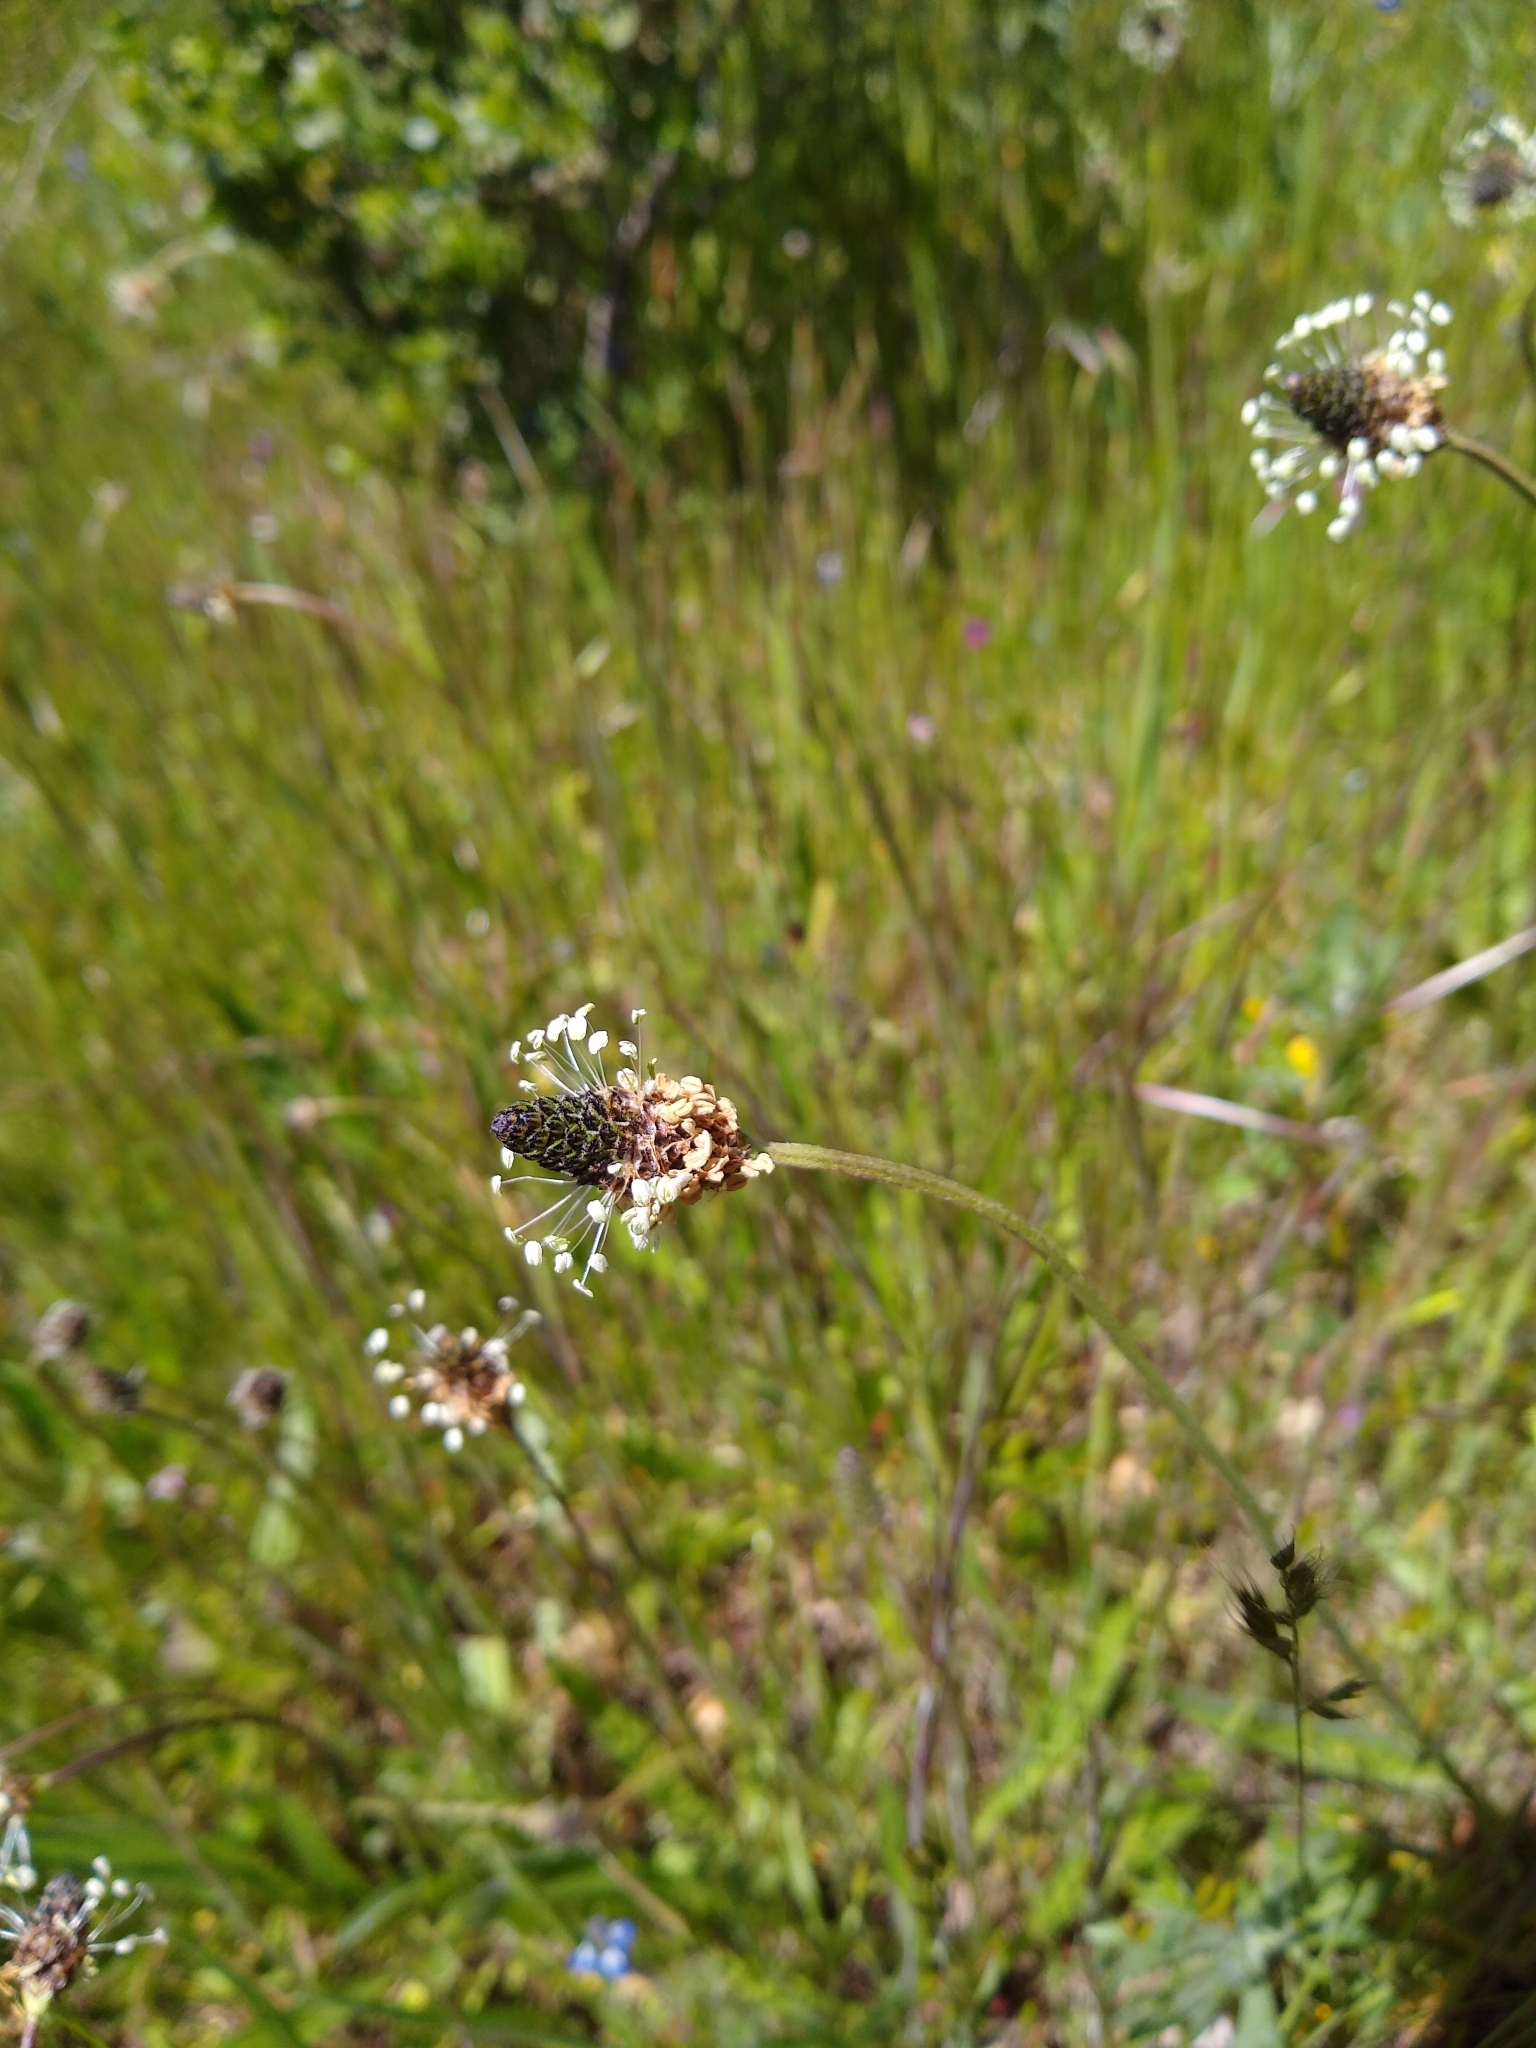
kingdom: Plantae
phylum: Tracheophyta
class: Magnoliopsida
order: Lamiales
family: Plantaginaceae
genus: Plantago
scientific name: Plantago lanceolata
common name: Ribwort plantain
